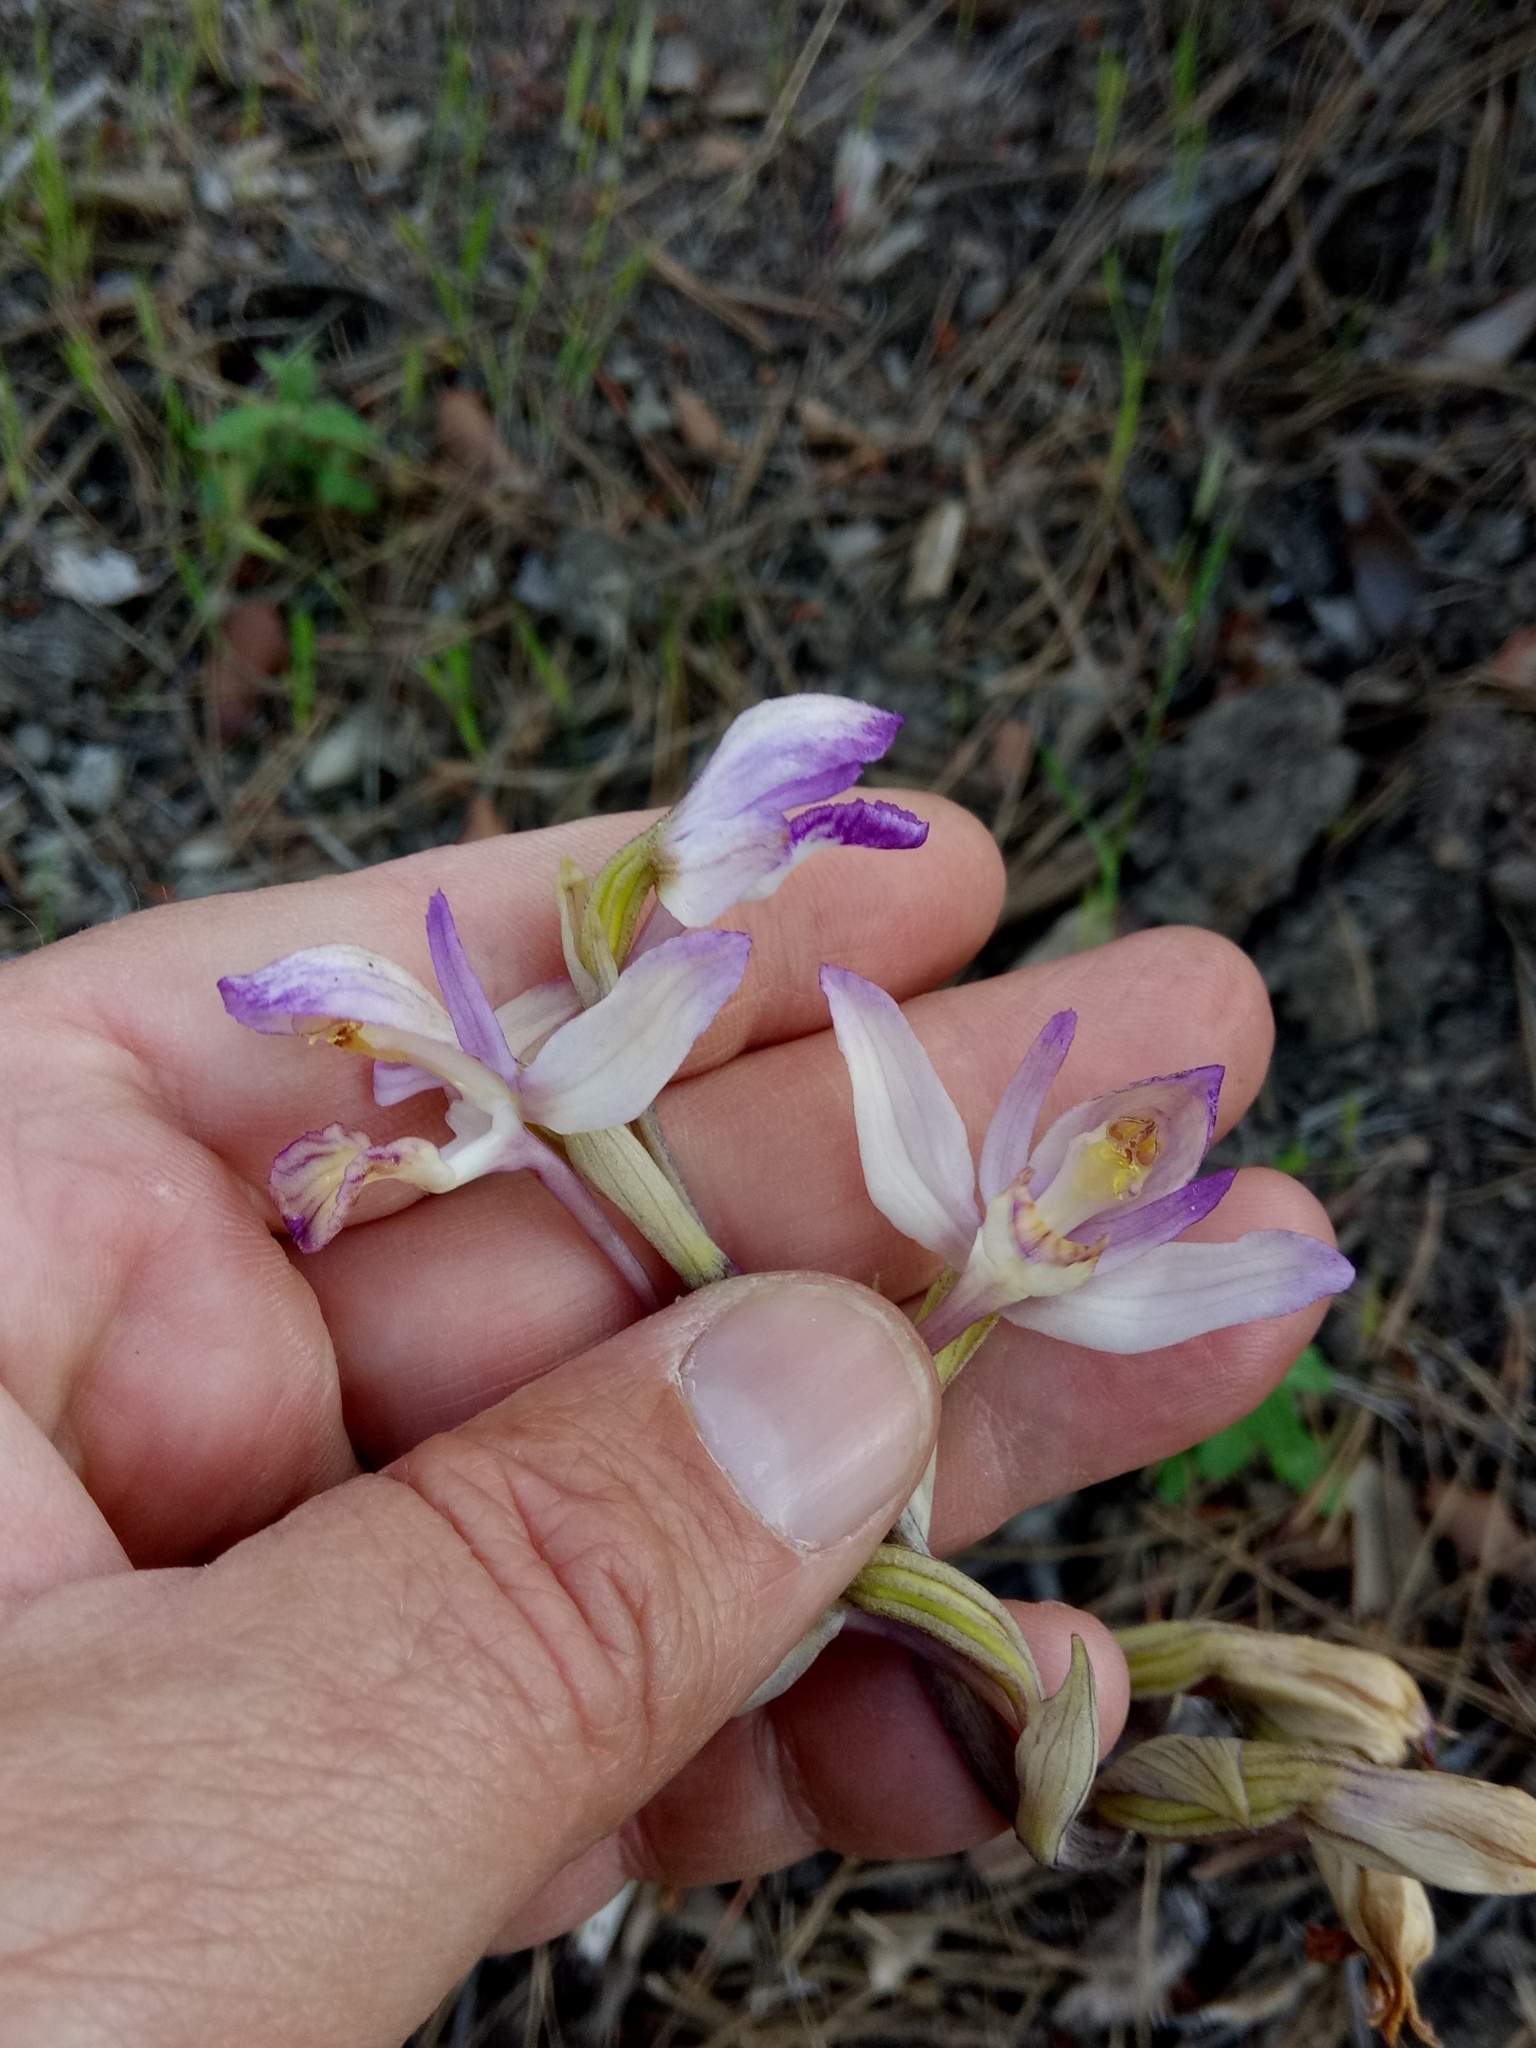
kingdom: Plantae
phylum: Tracheophyta
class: Liliopsida
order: Asparagales
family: Orchidaceae
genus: Limodorum
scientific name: Limodorum abortivum
